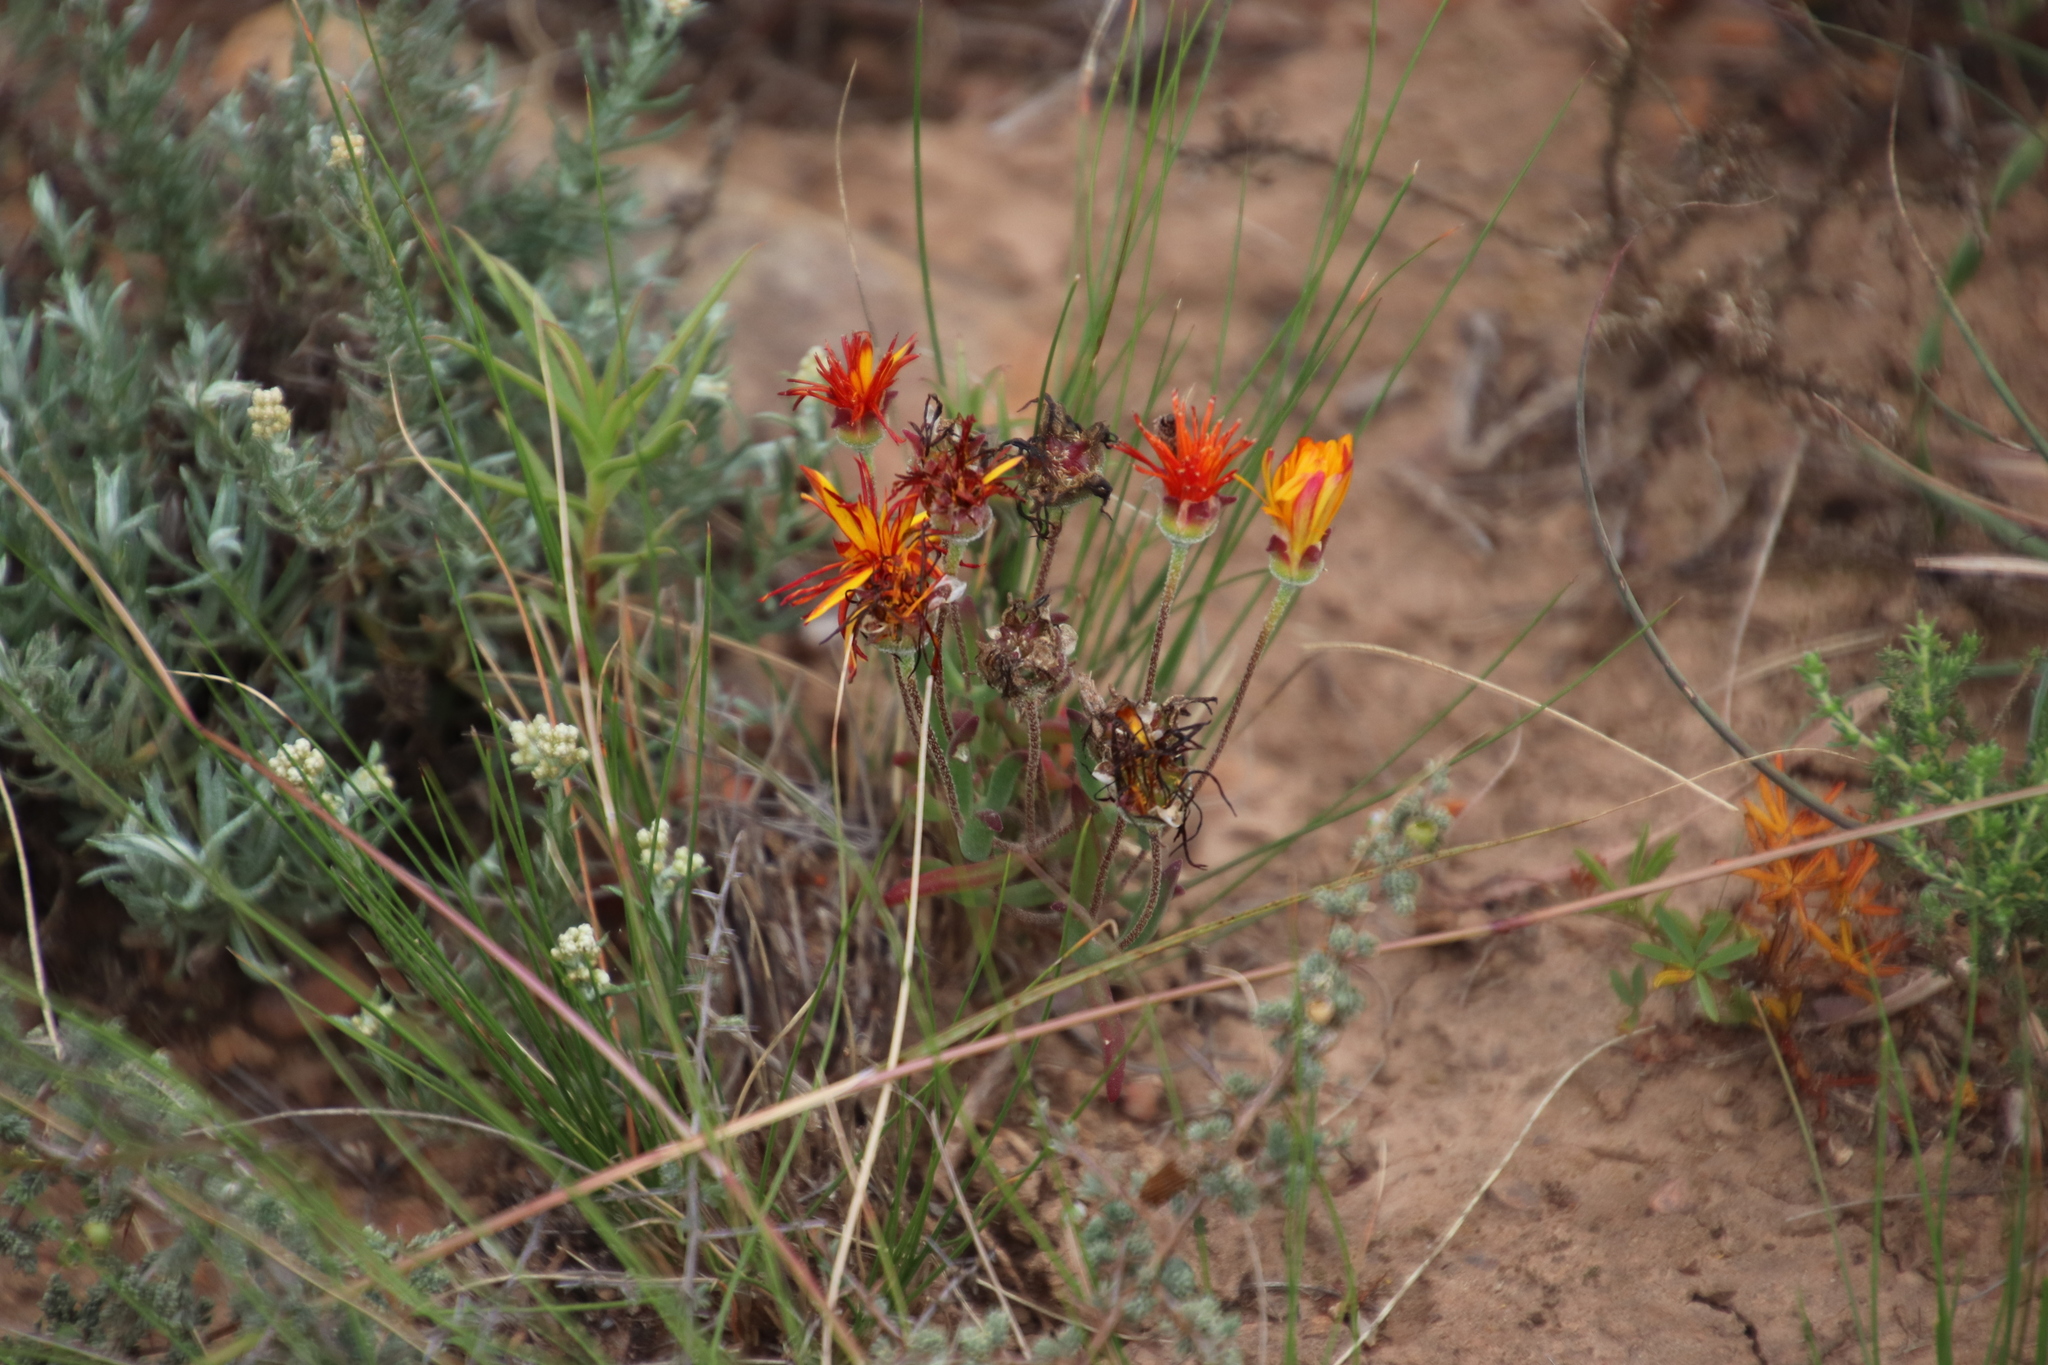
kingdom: Plantae
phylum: Tracheophyta
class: Magnoliopsida
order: Caryophyllales
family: Aizoaceae
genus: Drosanthemum
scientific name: Drosanthemum flavum
